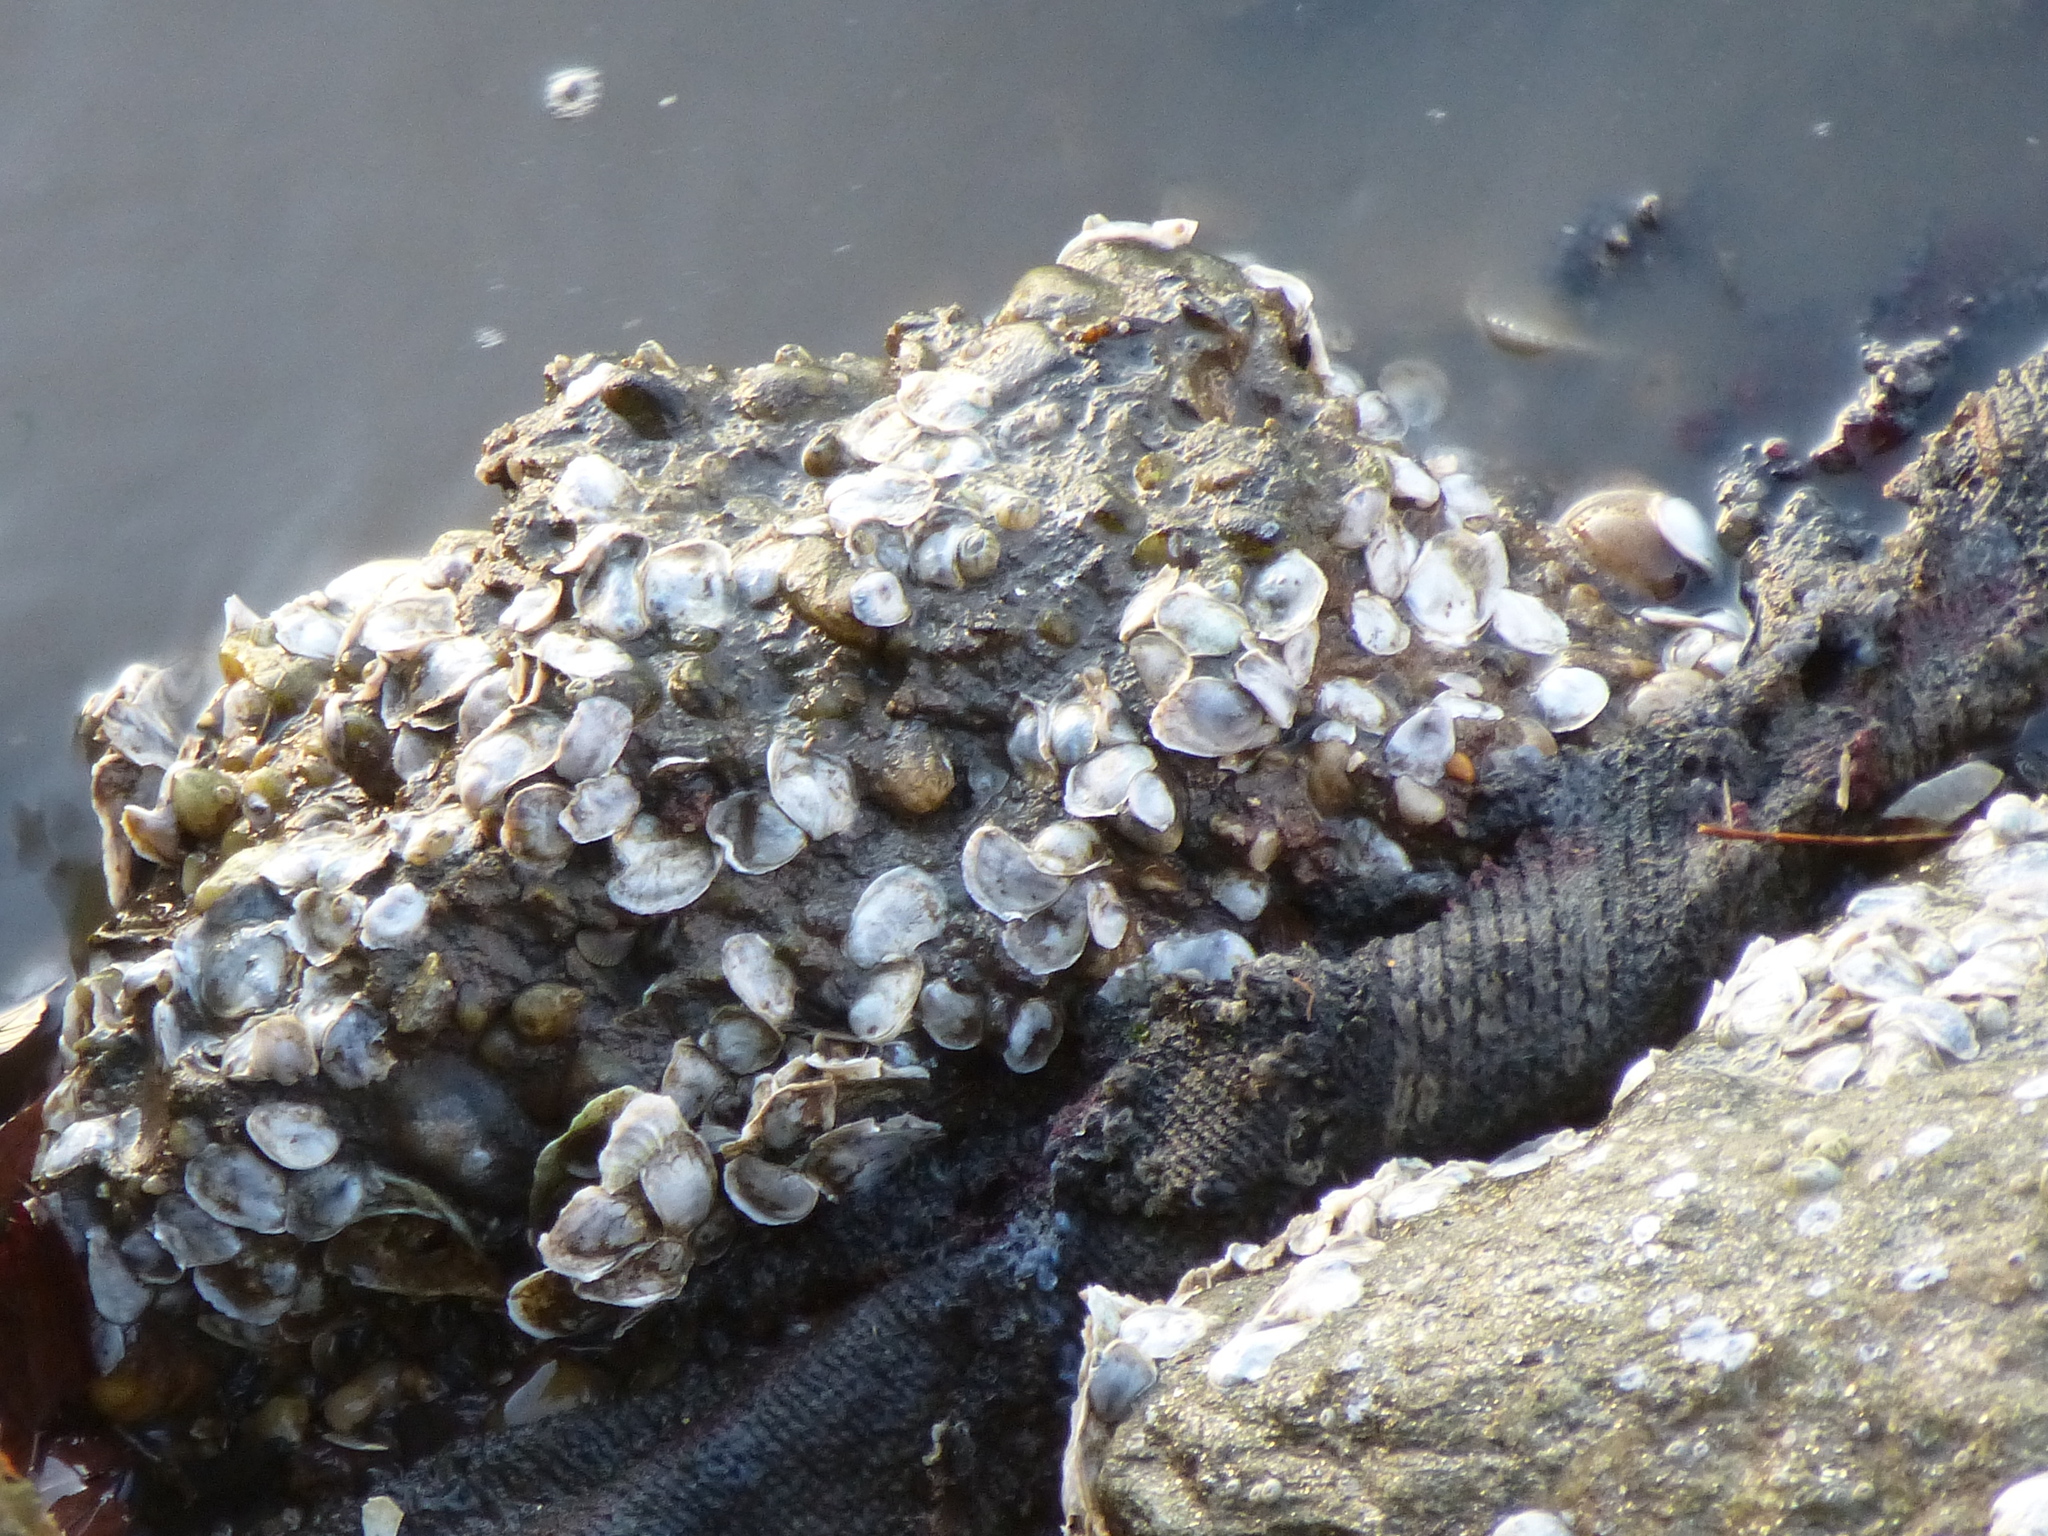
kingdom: Animalia
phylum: Mollusca
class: Bivalvia
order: Ostreida
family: Ostreidae
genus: Crassostrea
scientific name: Crassostrea virginica
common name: American oyster
